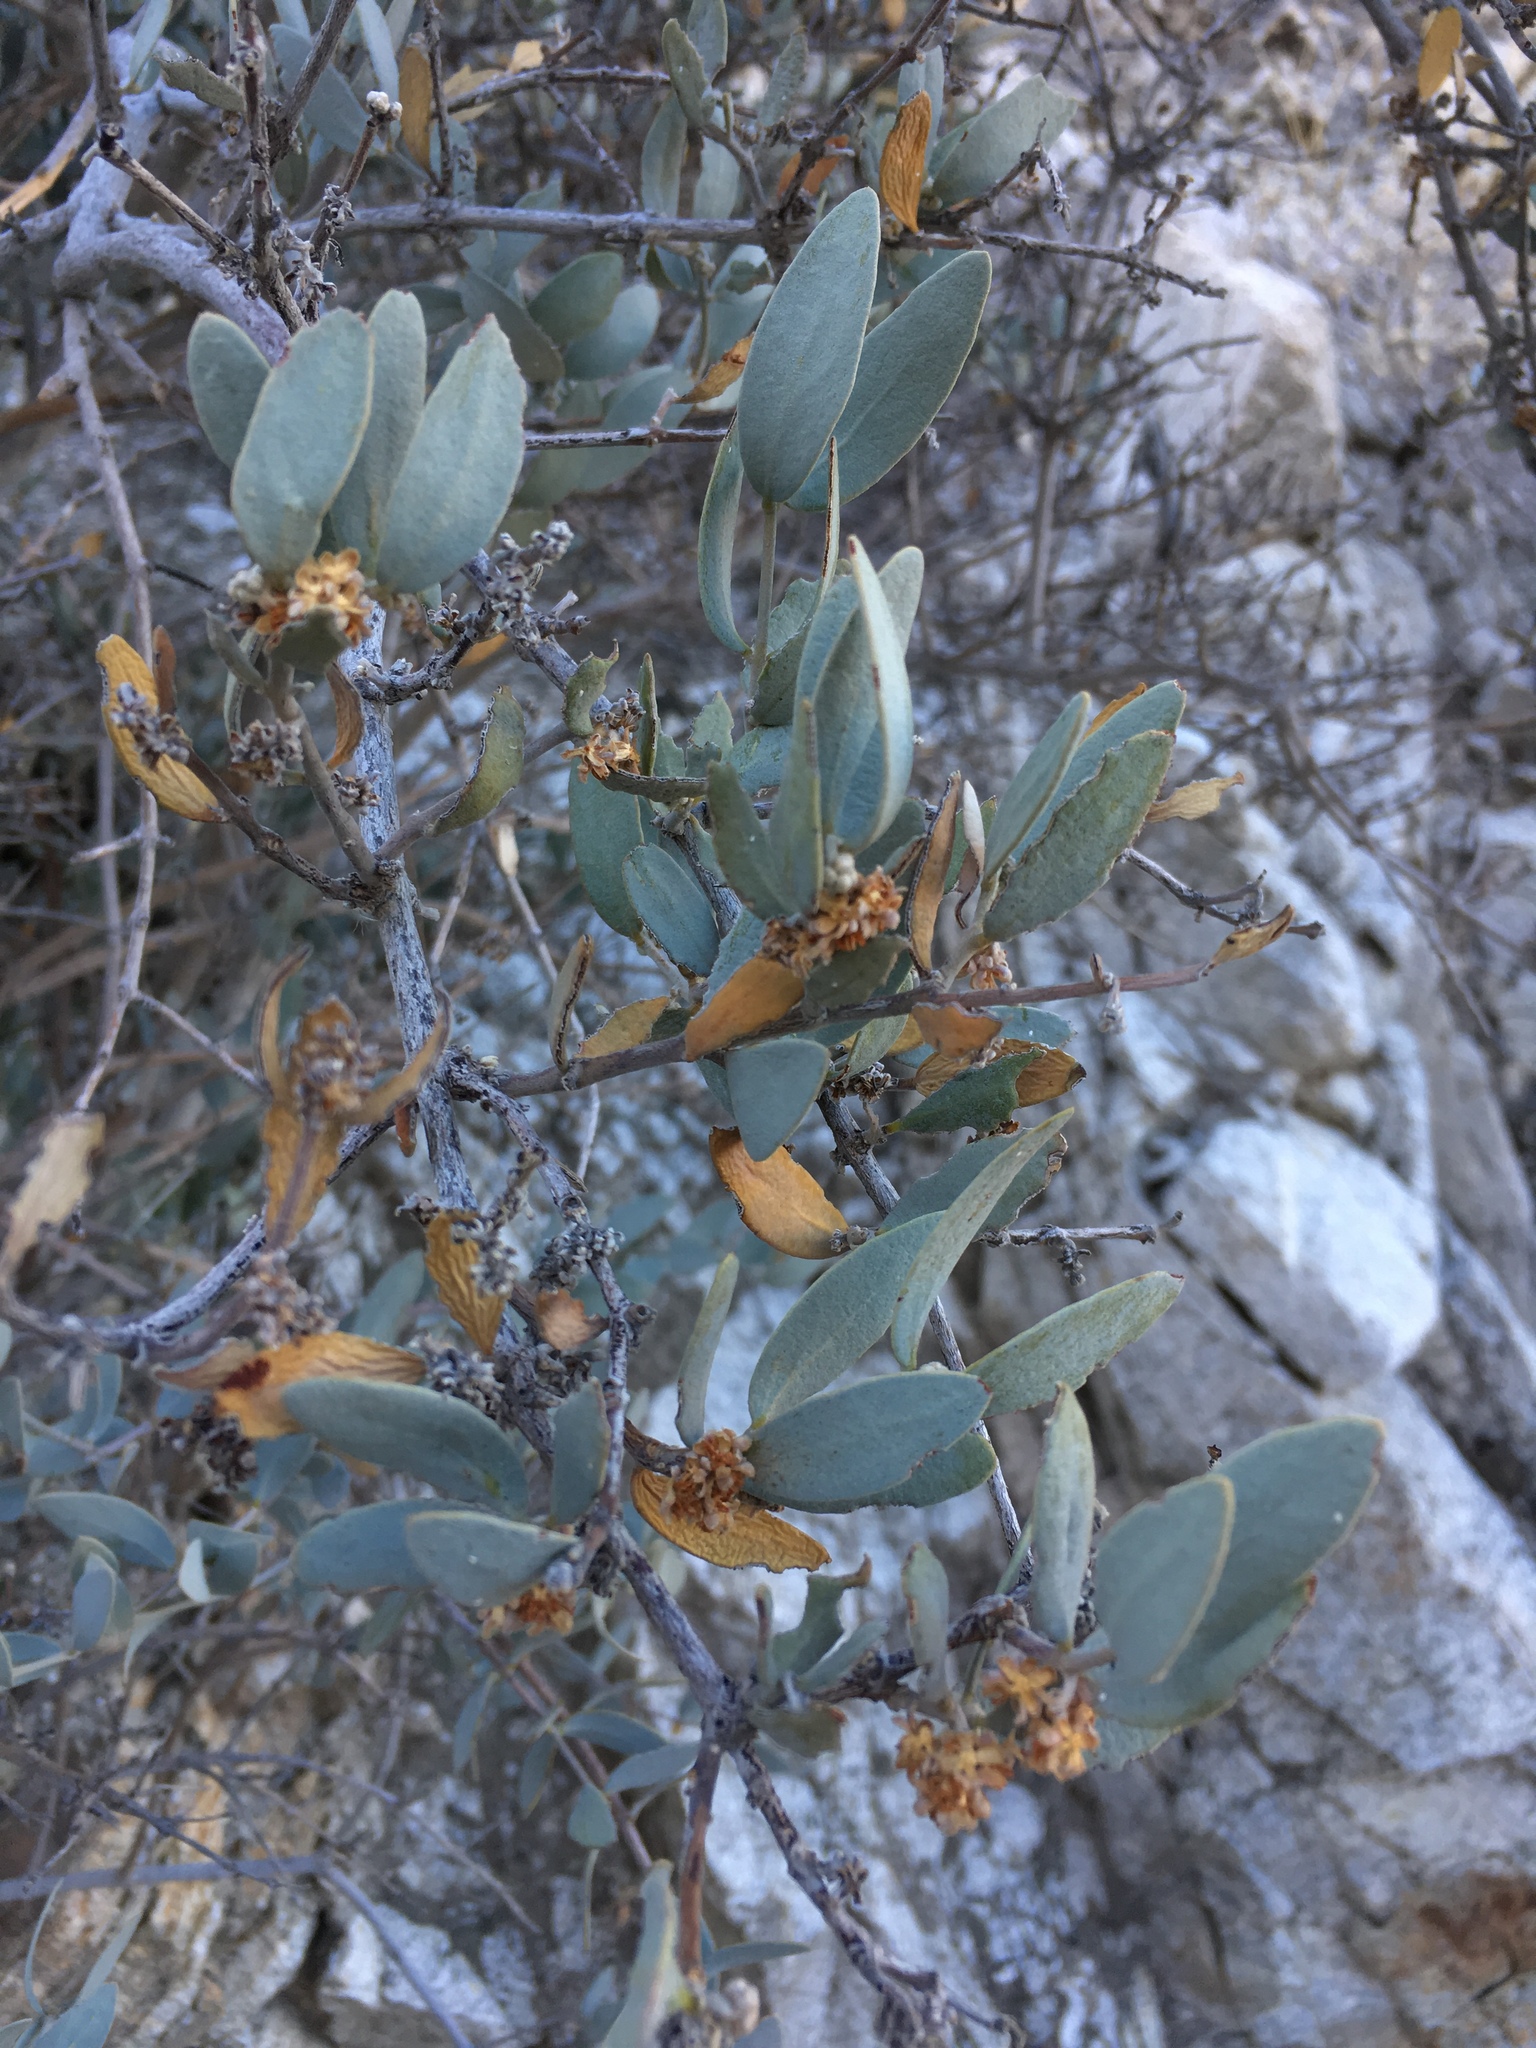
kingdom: Plantae
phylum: Tracheophyta
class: Magnoliopsida
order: Caryophyllales
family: Simmondsiaceae
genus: Simmondsia
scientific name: Simmondsia chinensis
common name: Jojoba
